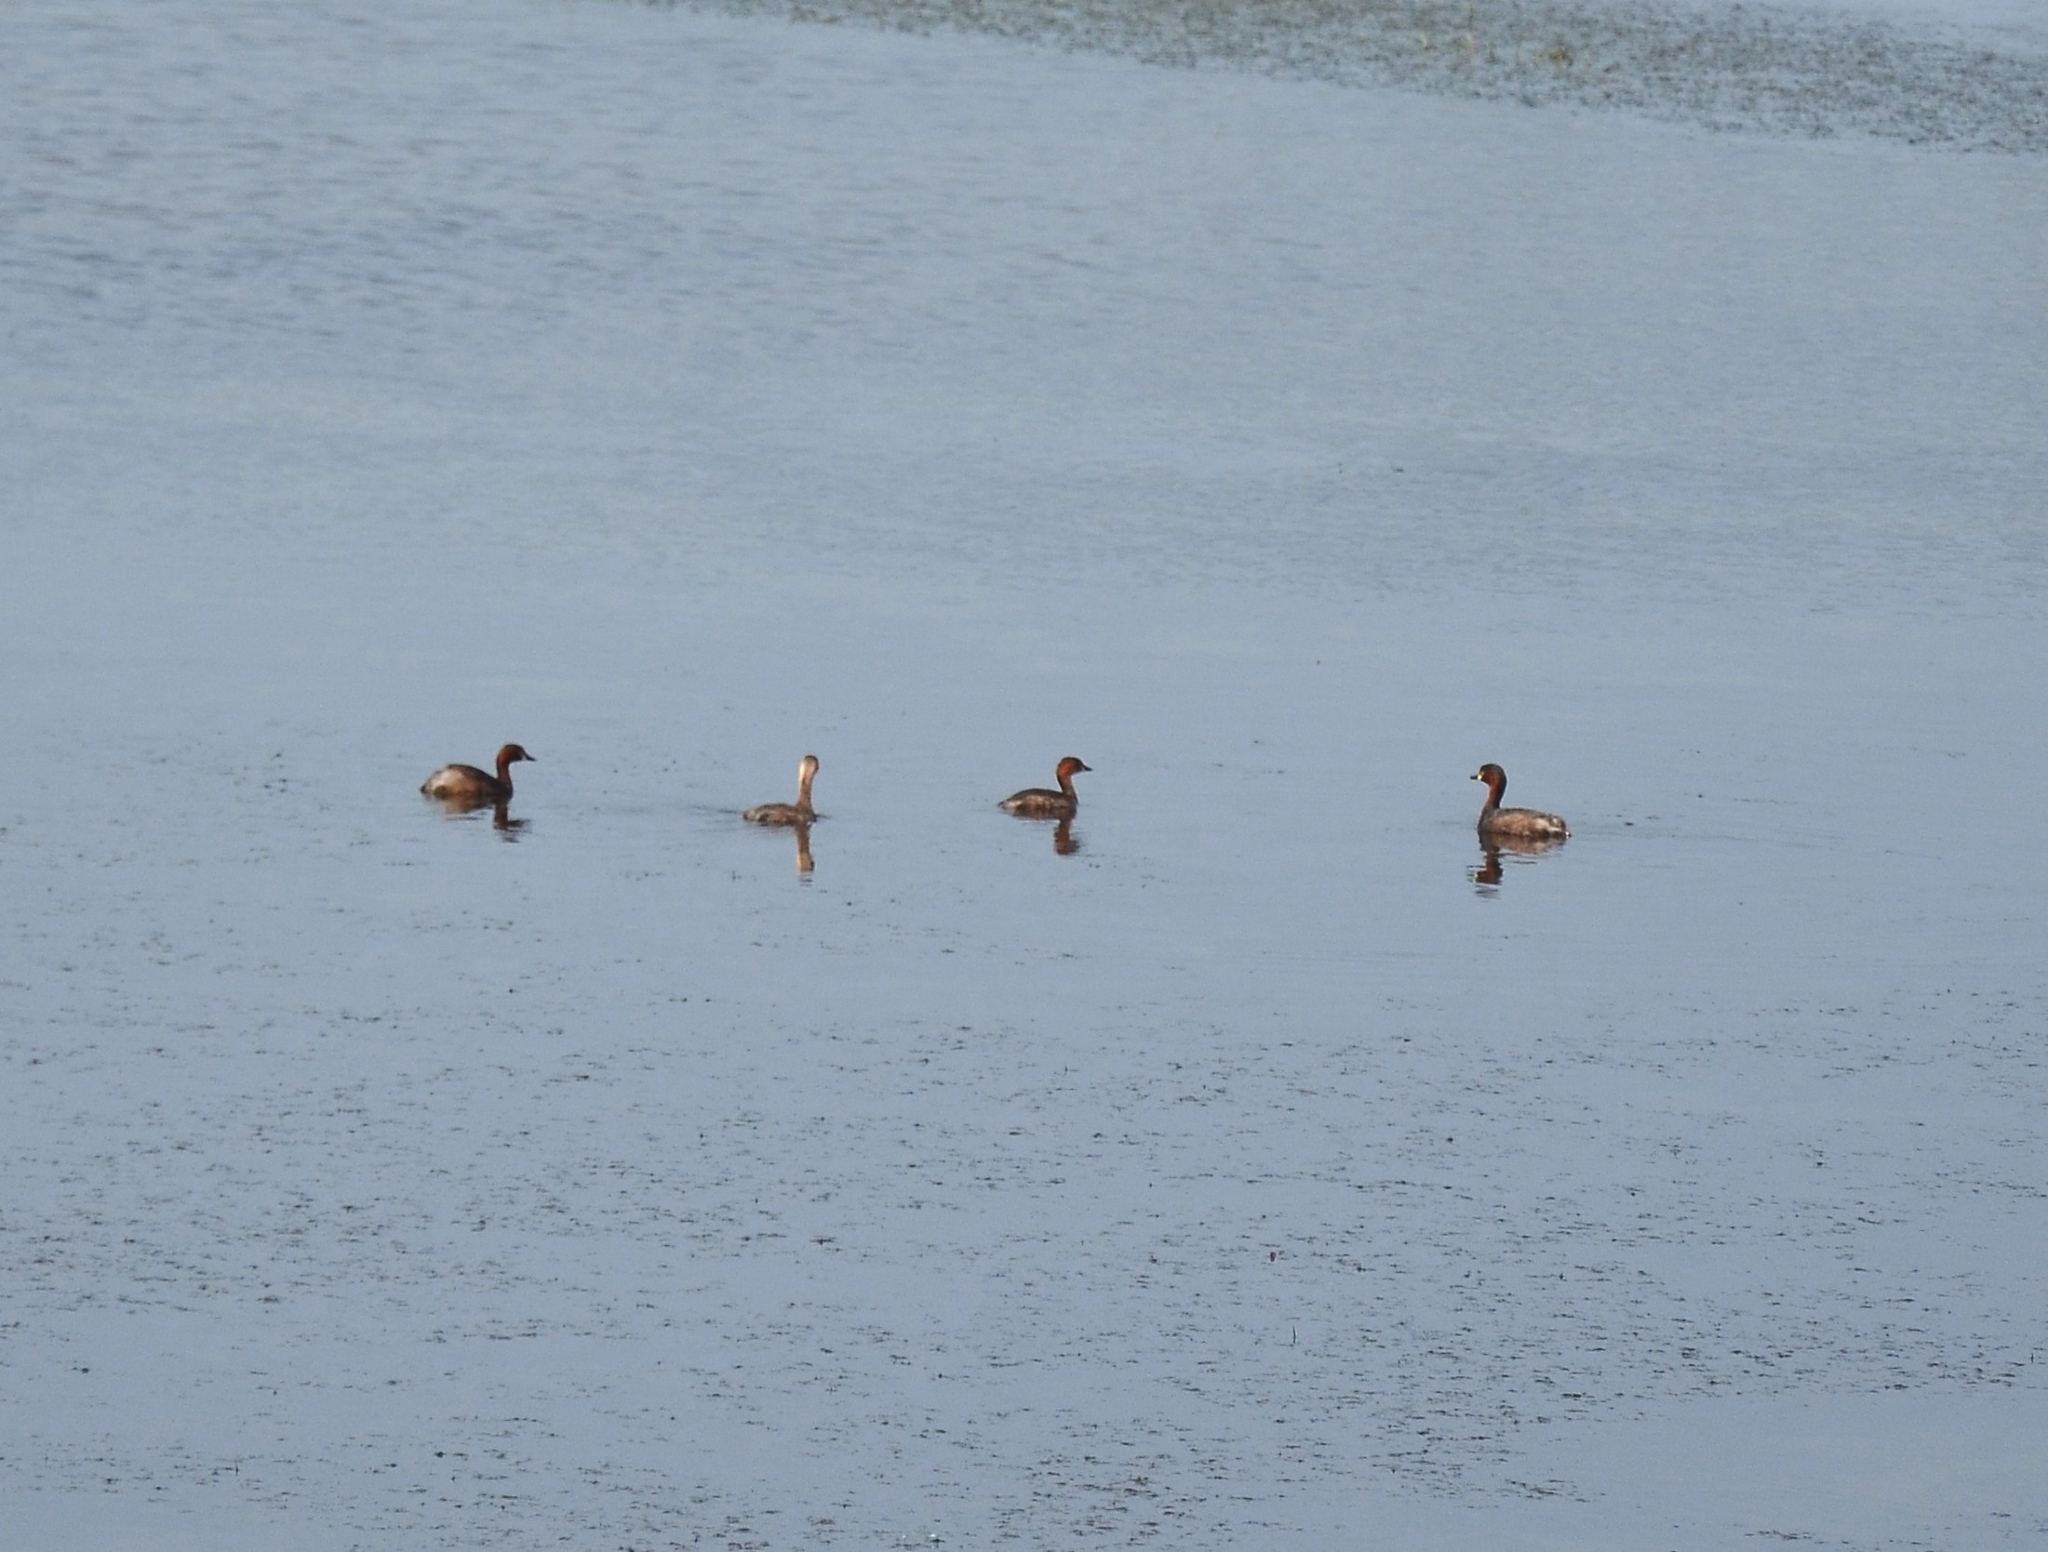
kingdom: Animalia
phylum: Chordata
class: Aves
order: Podicipediformes
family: Podicipedidae
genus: Tachybaptus
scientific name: Tachybaptus ruficollis
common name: Little grebe
